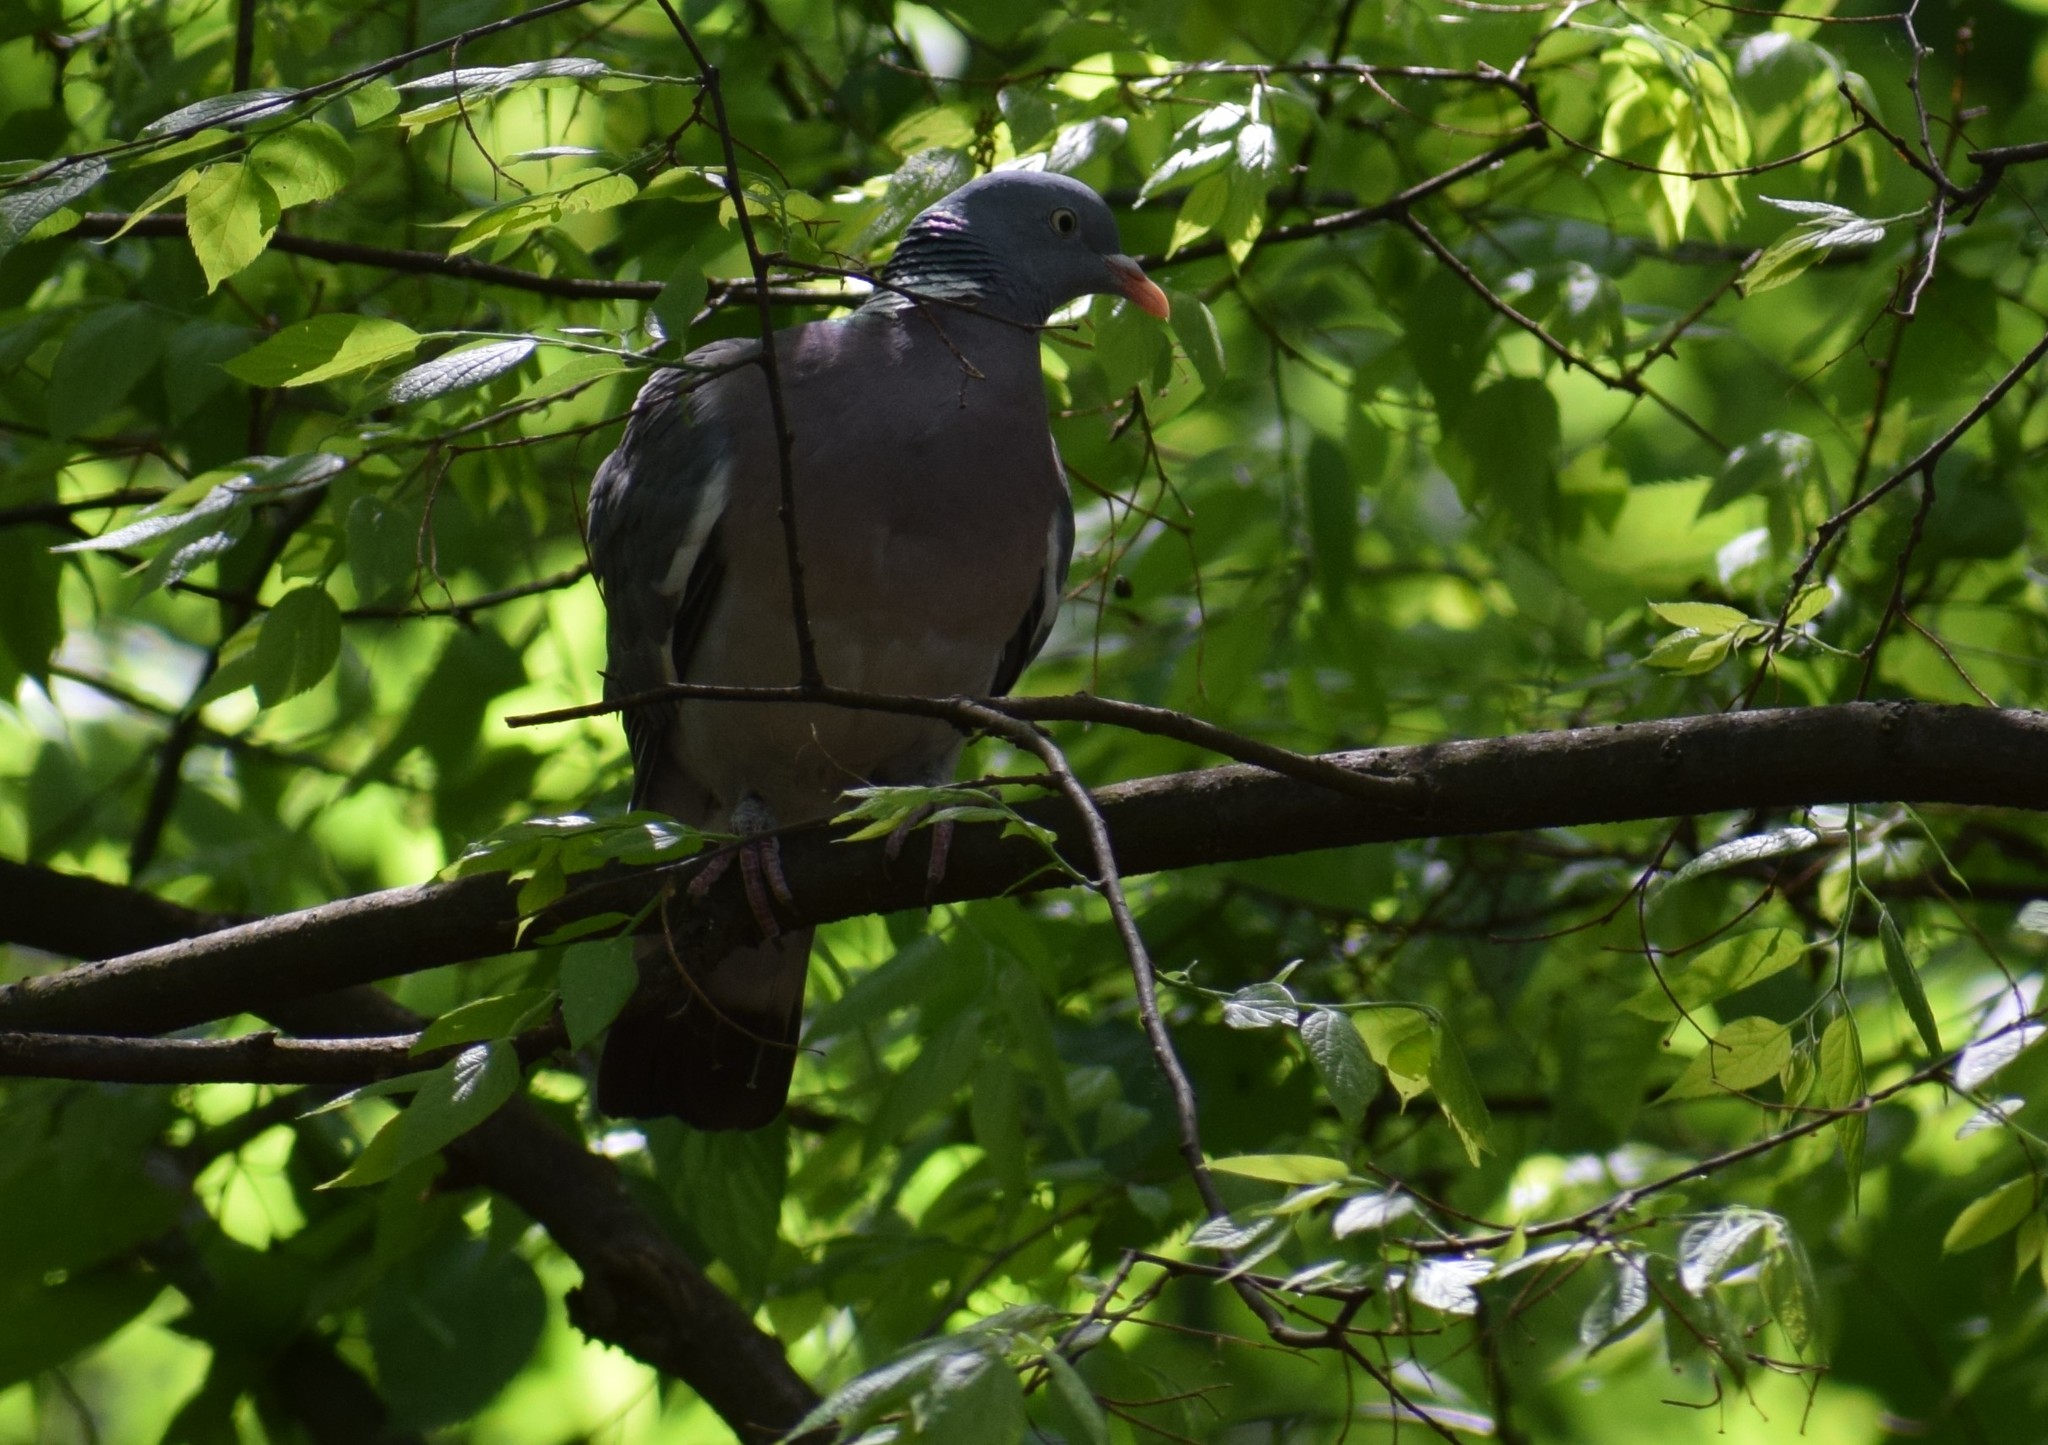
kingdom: Animalia
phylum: Chordata
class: Aves
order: Columbiformes
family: Columbidae
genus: Columba
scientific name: Columba palumbus
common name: Common wood pigeon
